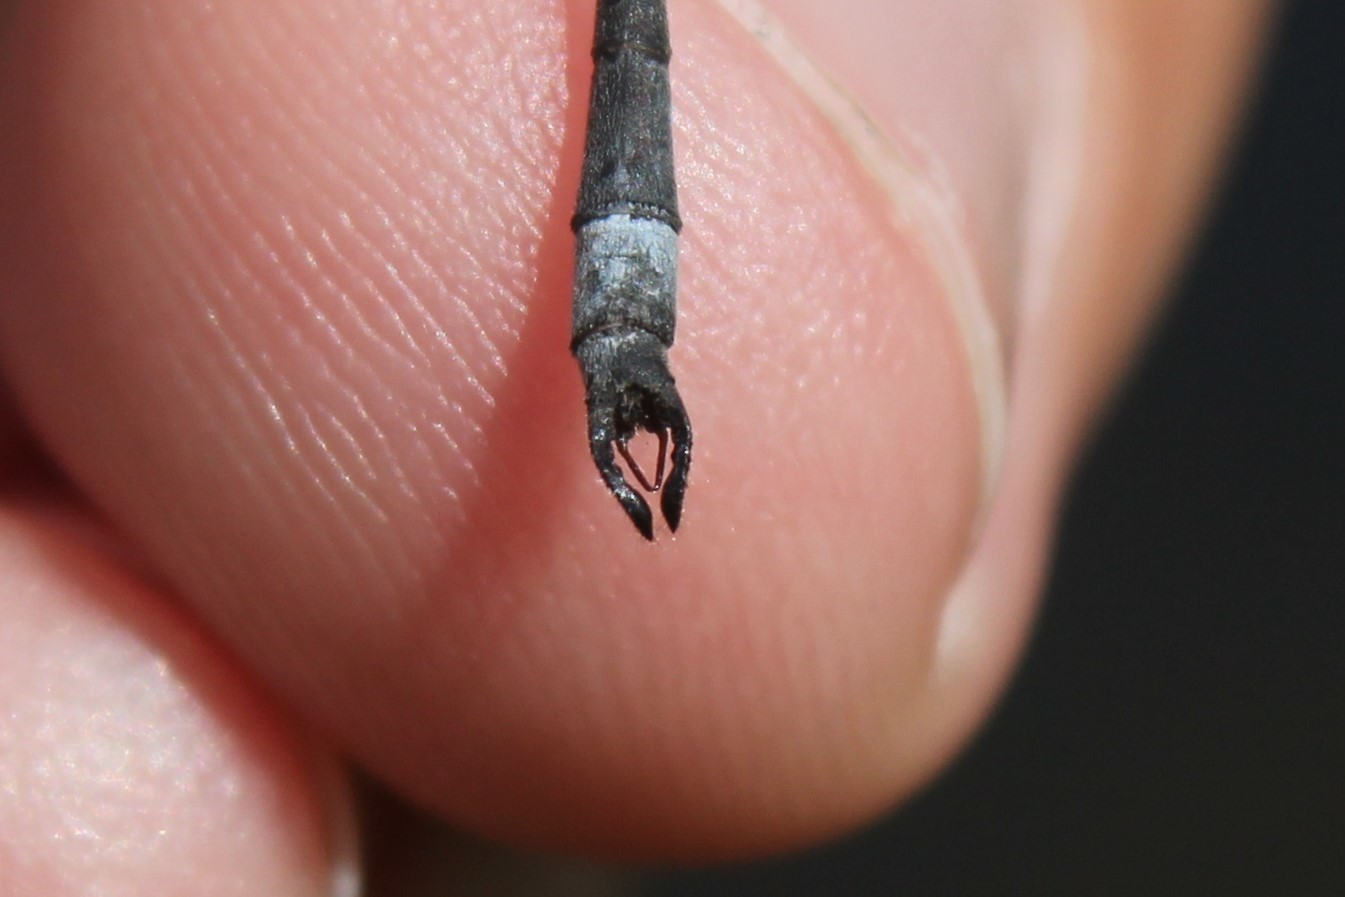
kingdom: Animalia
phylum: Arthropoda
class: Insecta
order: Odonata
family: Lestidae
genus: Lestes
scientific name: Lestes vigilax
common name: Swamp spreadwing
